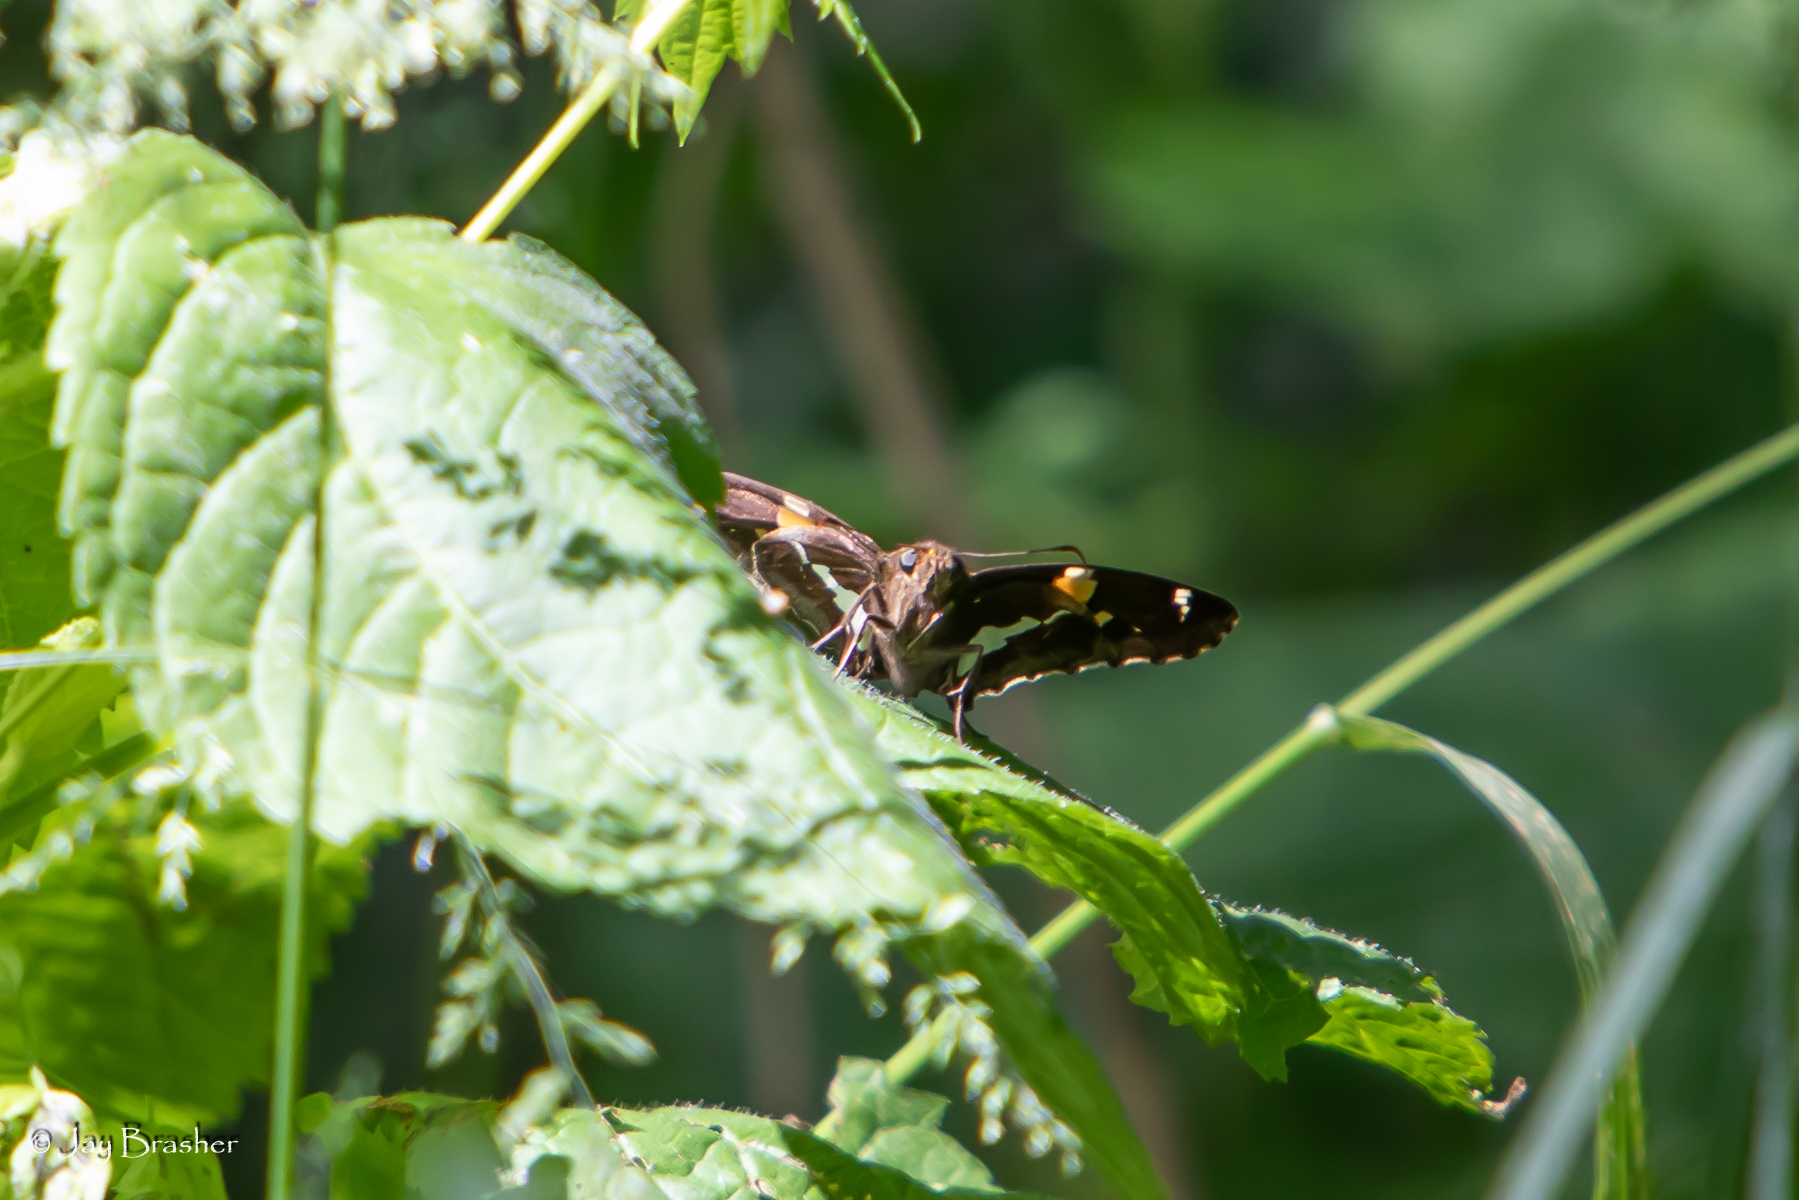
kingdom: Animalia
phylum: Arthropoda
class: Insecta
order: Lepidoptera
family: Hesperiidae
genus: Epargyreus
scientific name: Epargyreus clarus
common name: Silver-spotted skipper
